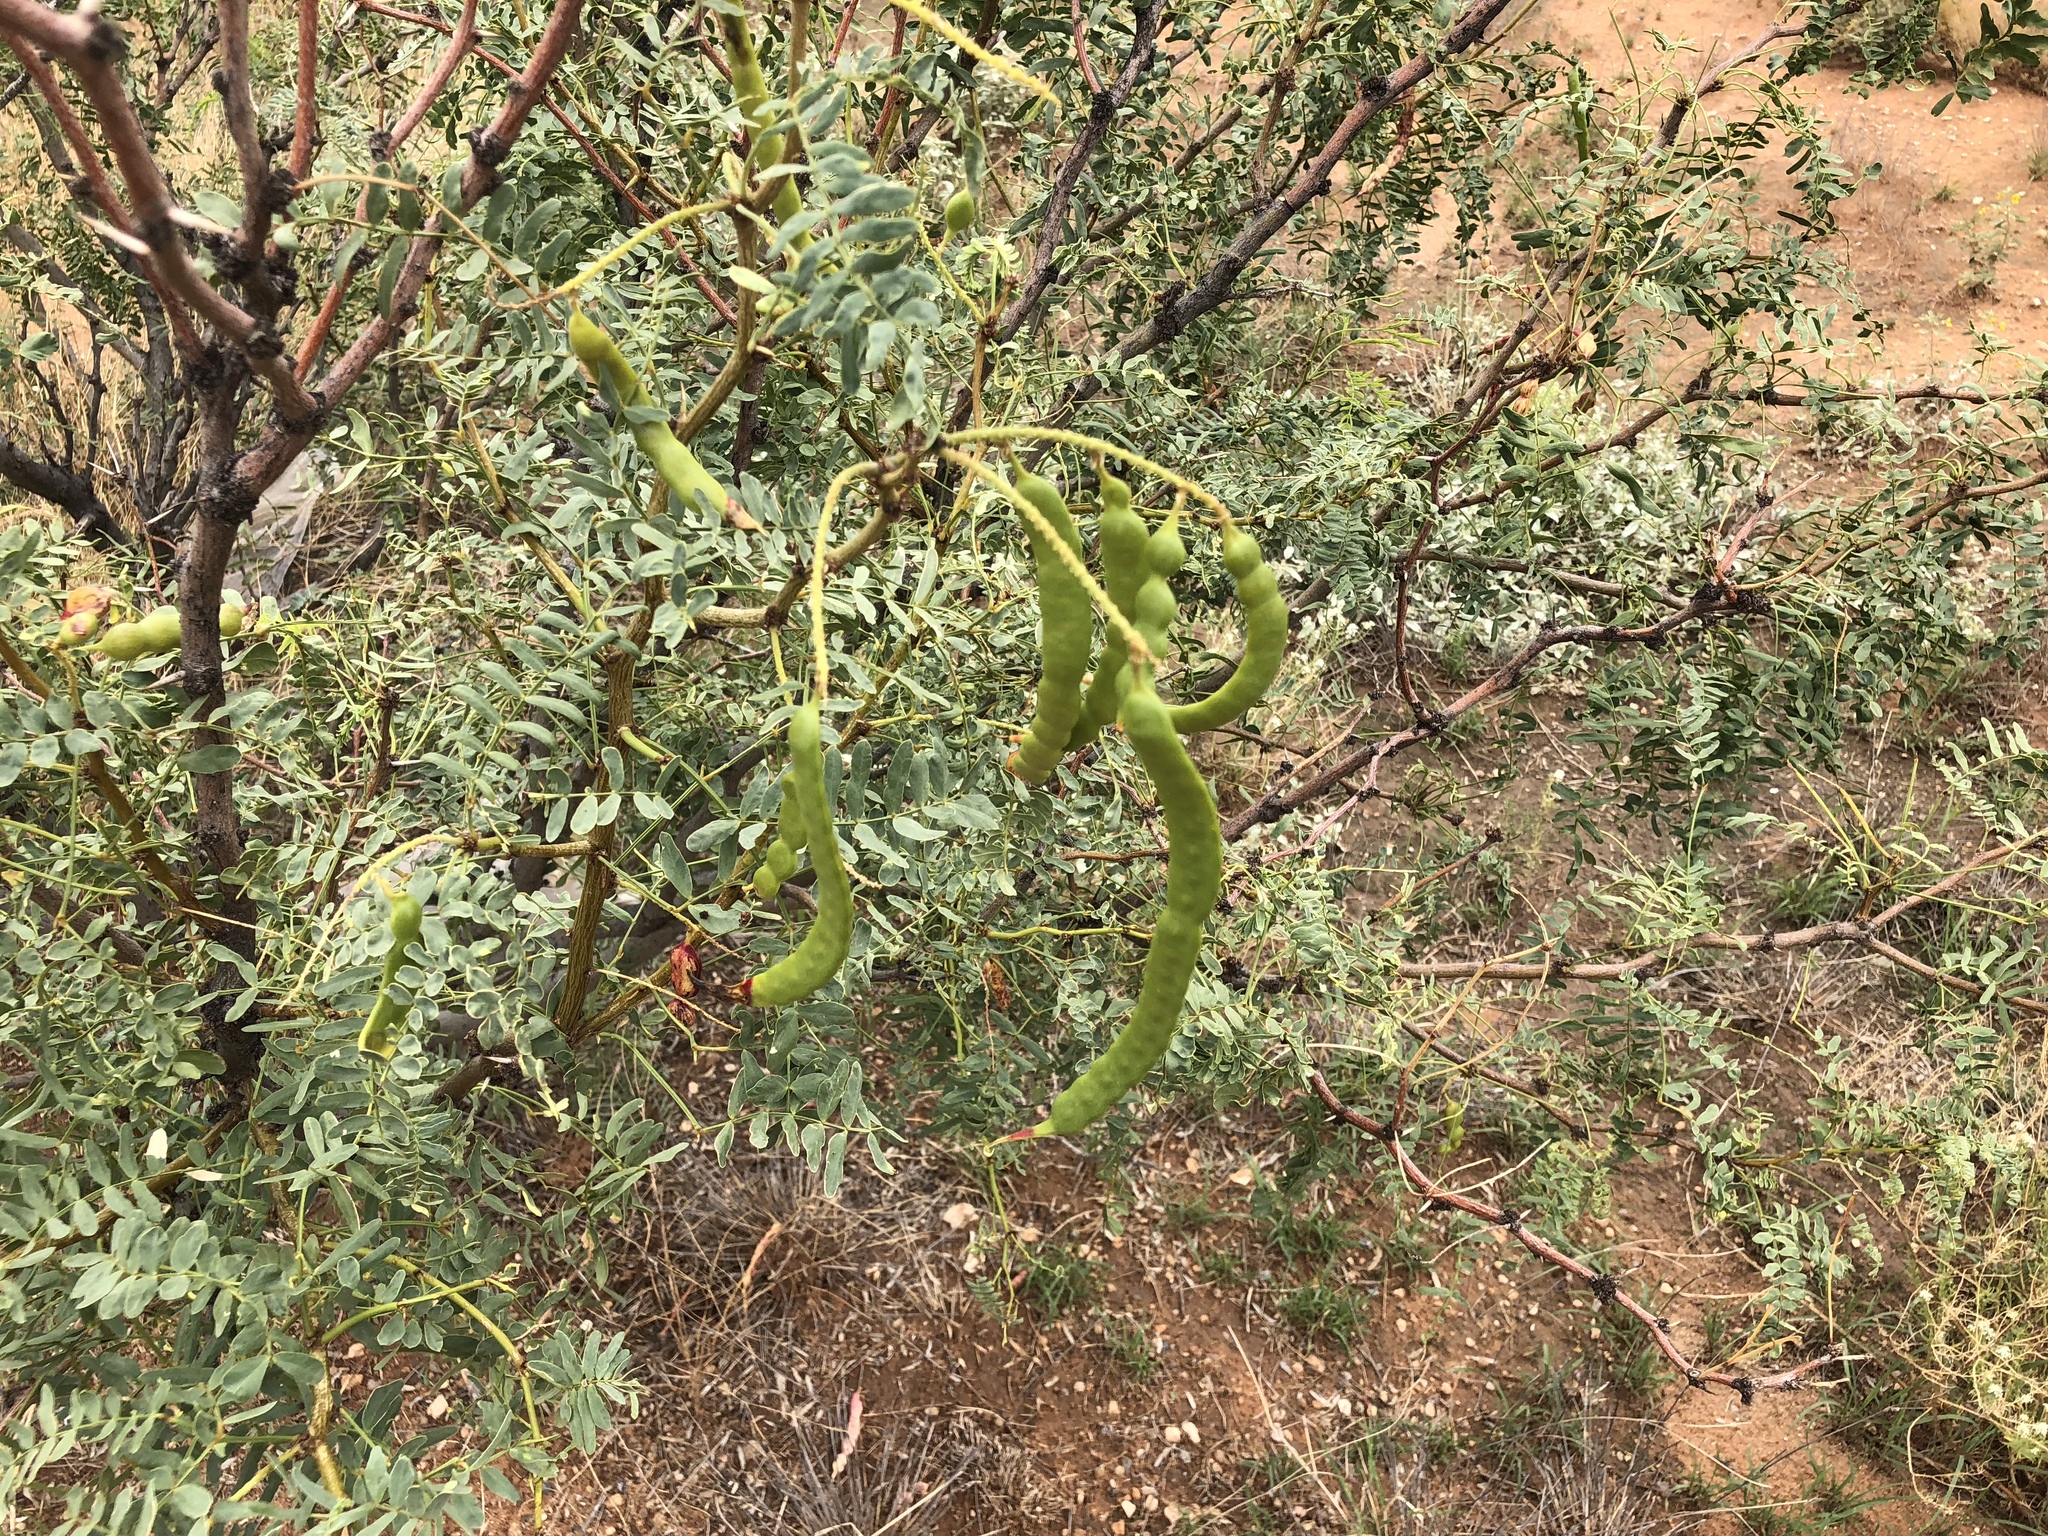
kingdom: Plantae
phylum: Tracheophyta
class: Magnoliopsida
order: Fabales
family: Fabaceae
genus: Prosopis
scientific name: Prosopis glandulosa
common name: Honey mesquite
